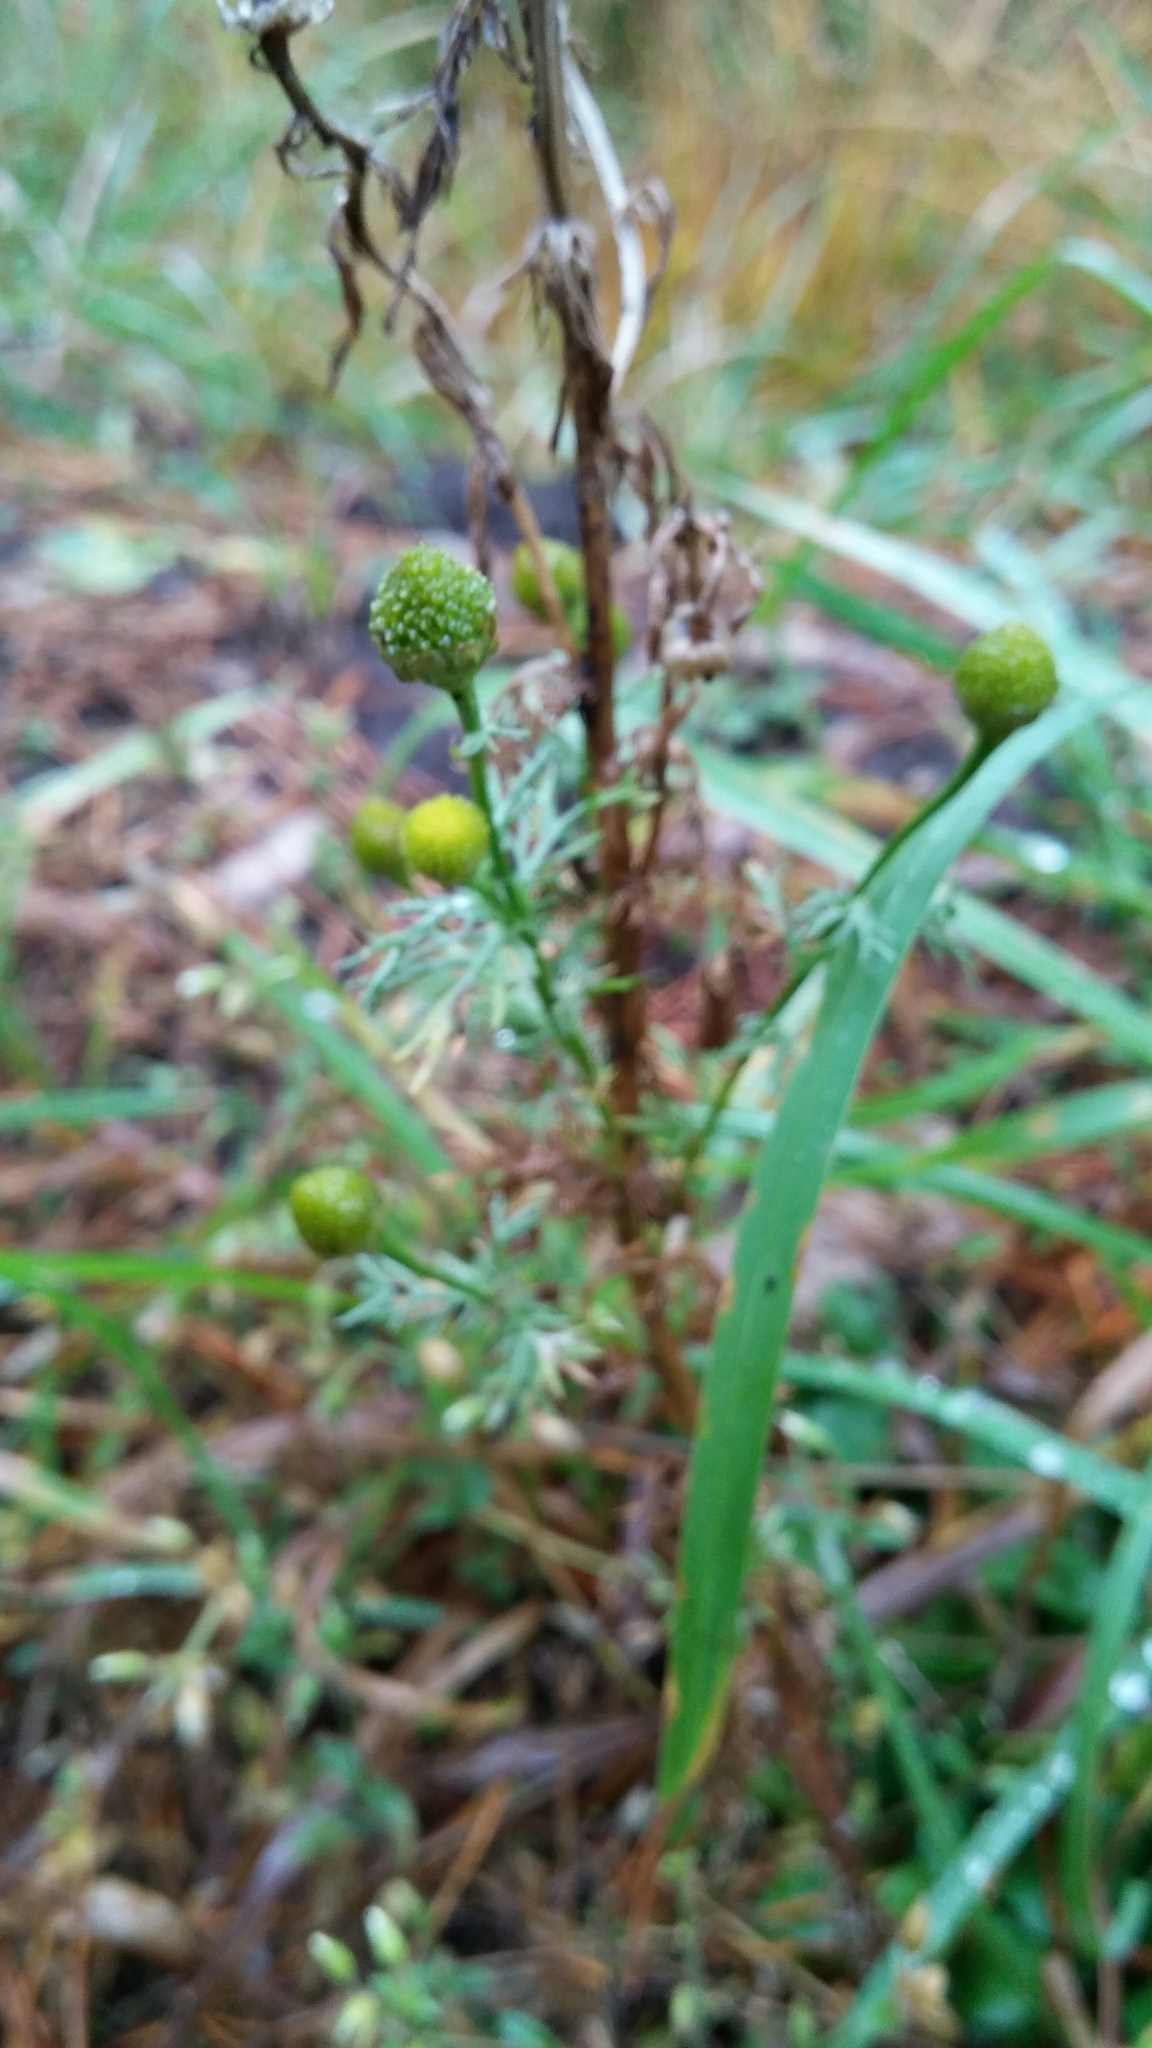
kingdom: Plantae
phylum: Tracheophyta
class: Magnoliopsida
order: Asterales
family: Asteraceae
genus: Matricaria
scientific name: Matricaria discoidea
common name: Disc mayweed
